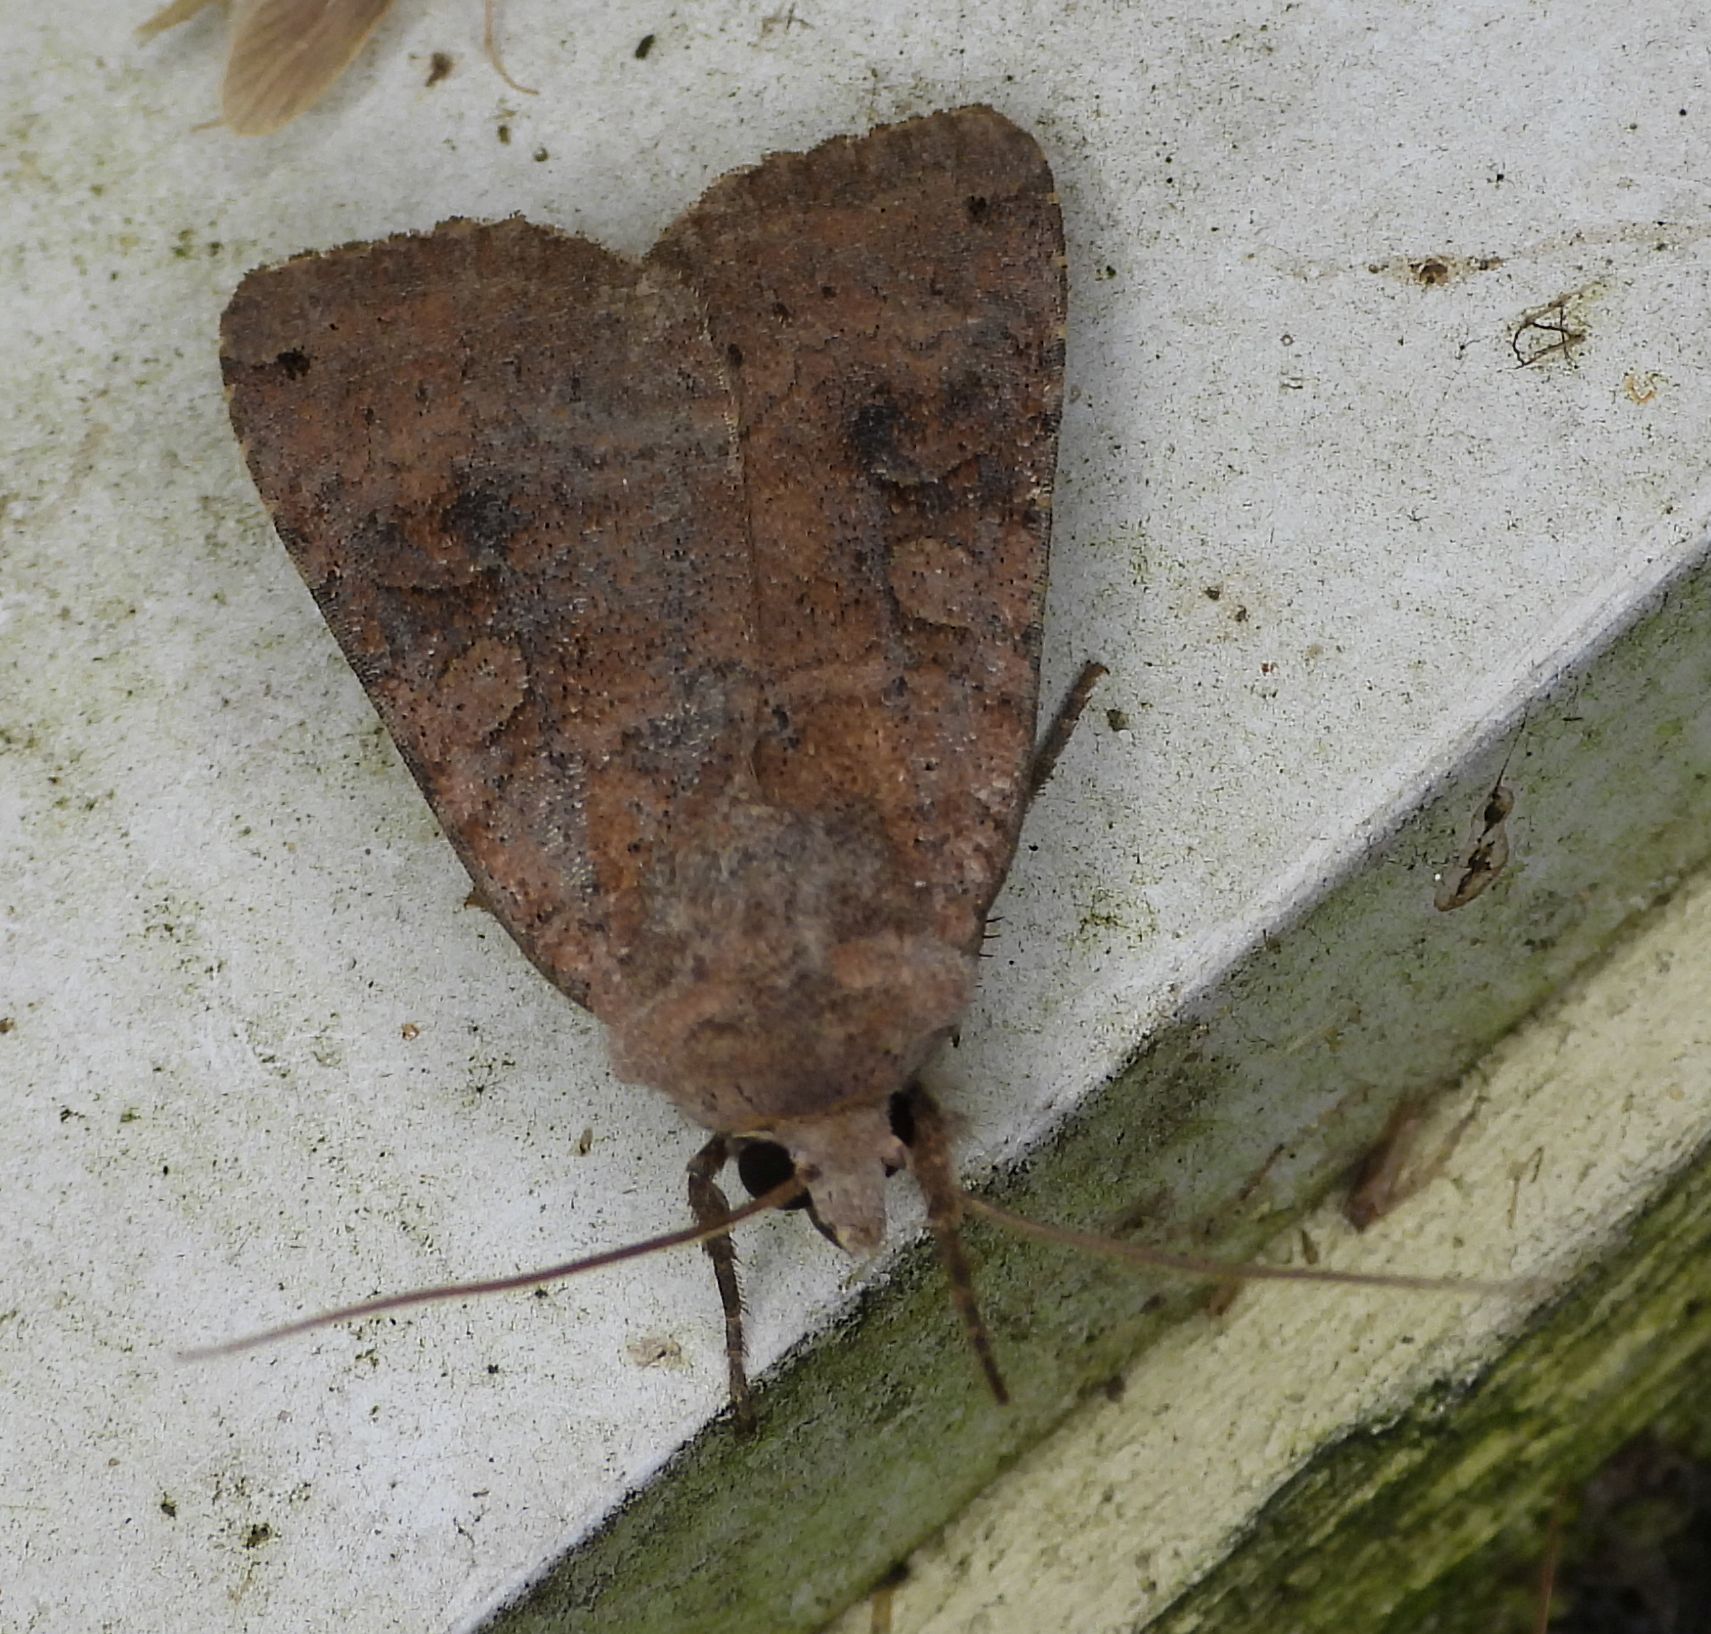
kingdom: Animalia
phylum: Arthropoda
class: Insecta
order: Lepidoptera
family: Noctuidae
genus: Xestia
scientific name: Xestia smithii
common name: Smith's dart
